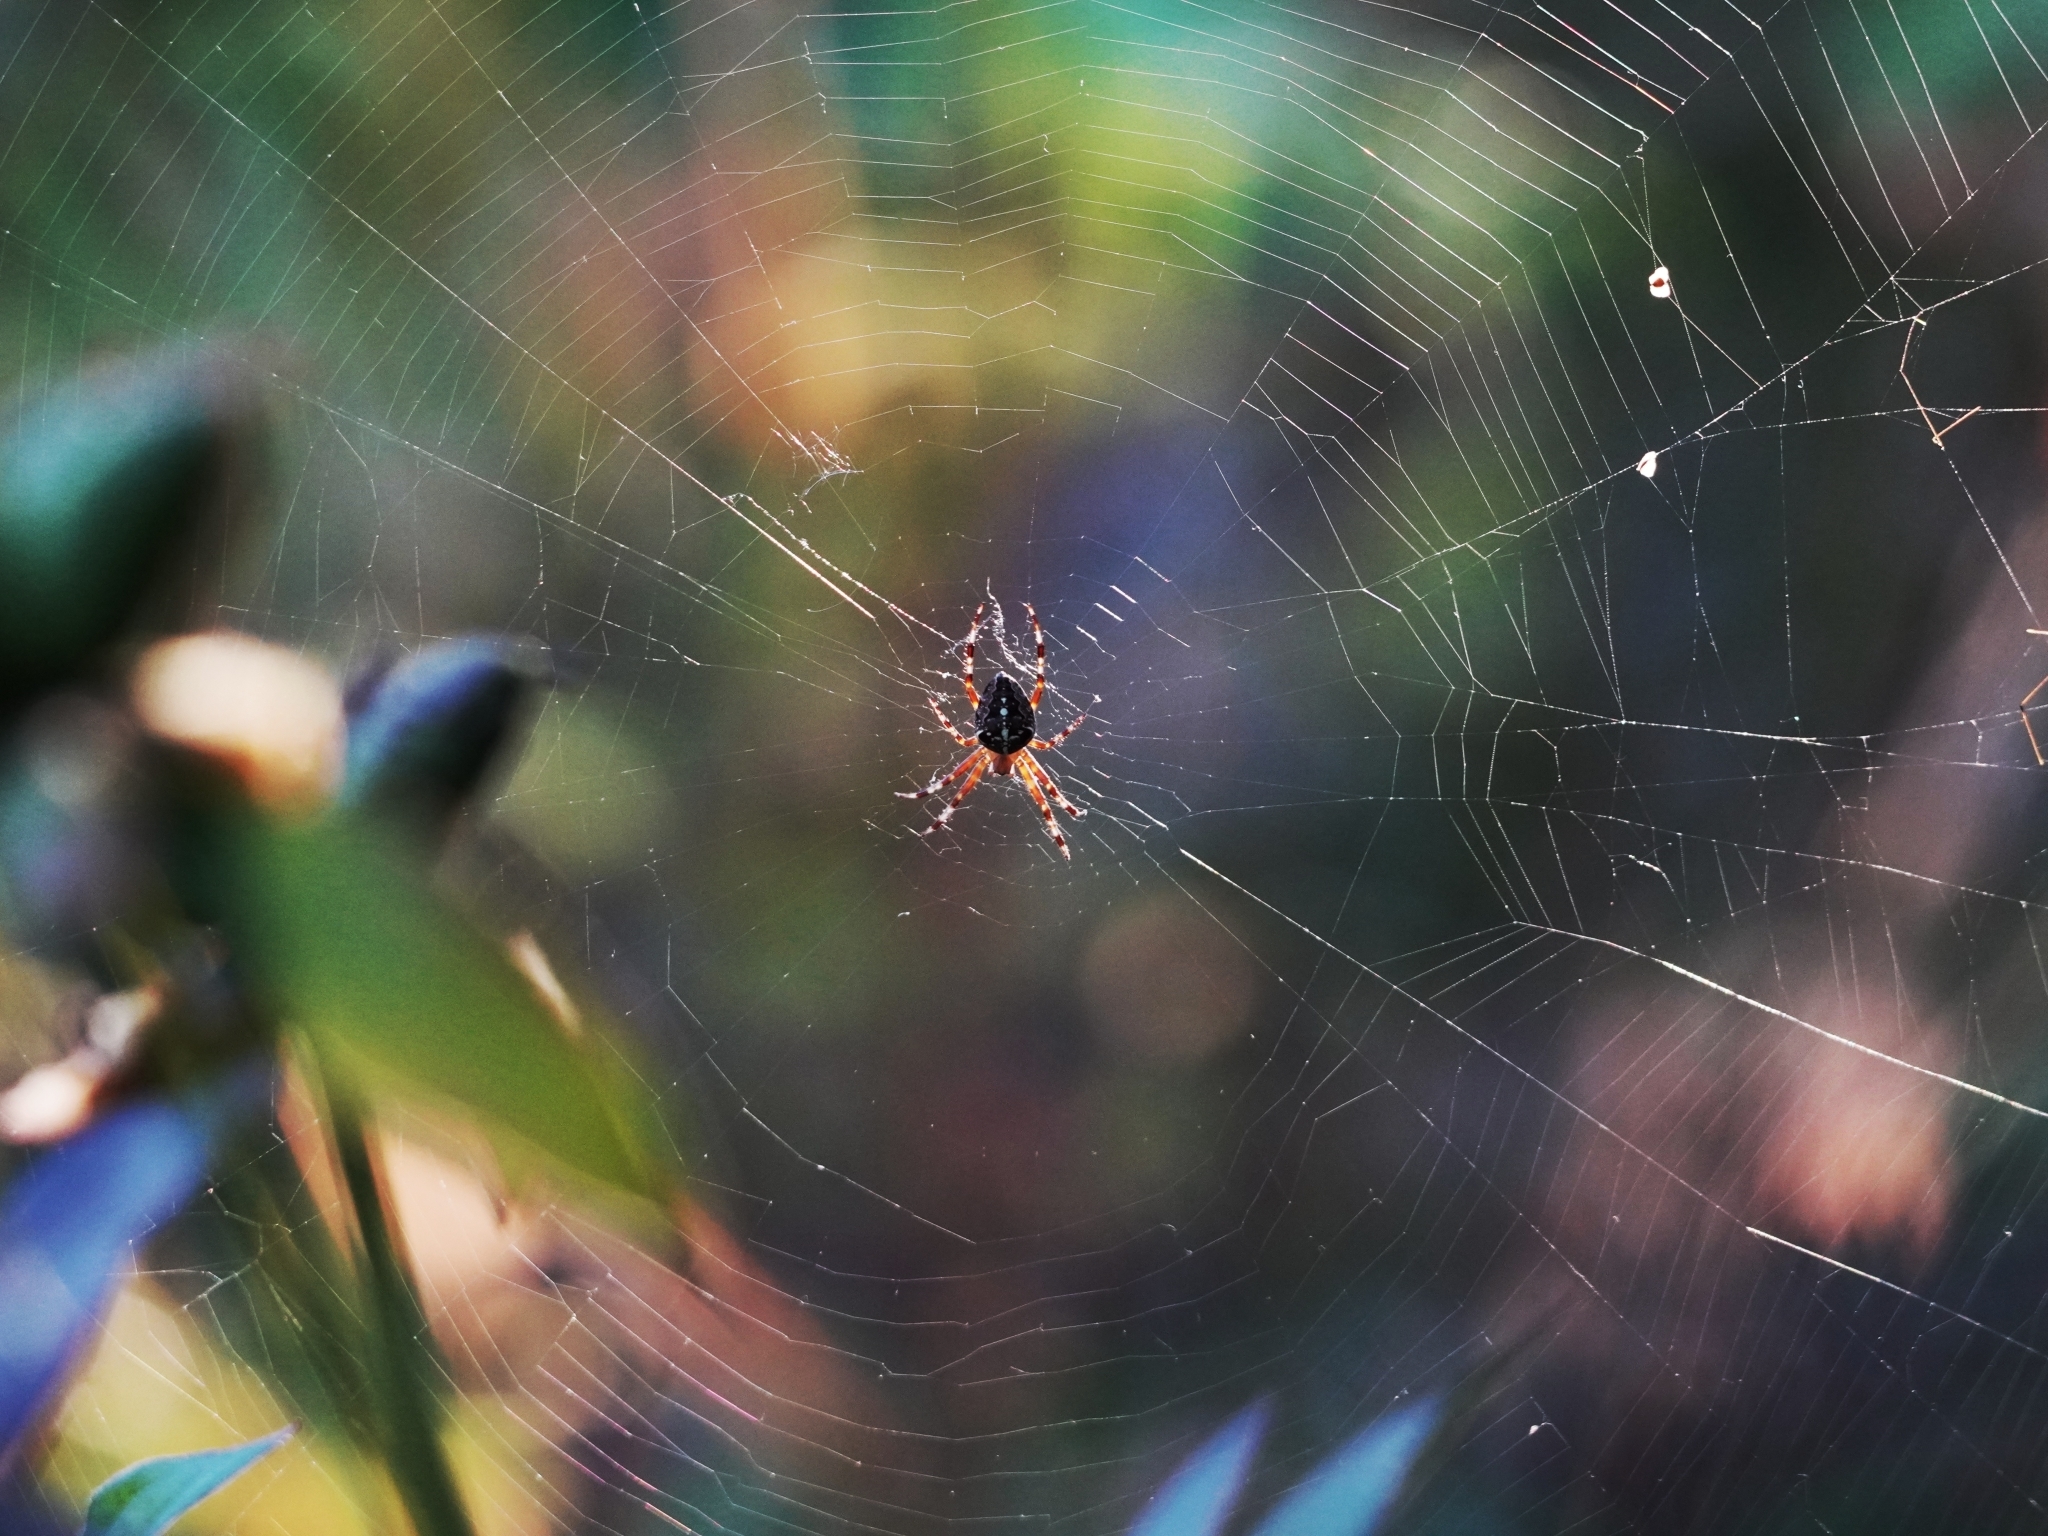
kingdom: Animalia
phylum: Arthropoda
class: Arachnida
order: Araneae
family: Araneidae
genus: Araneus
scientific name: Araneus diadematus
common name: Cross orbweaver
